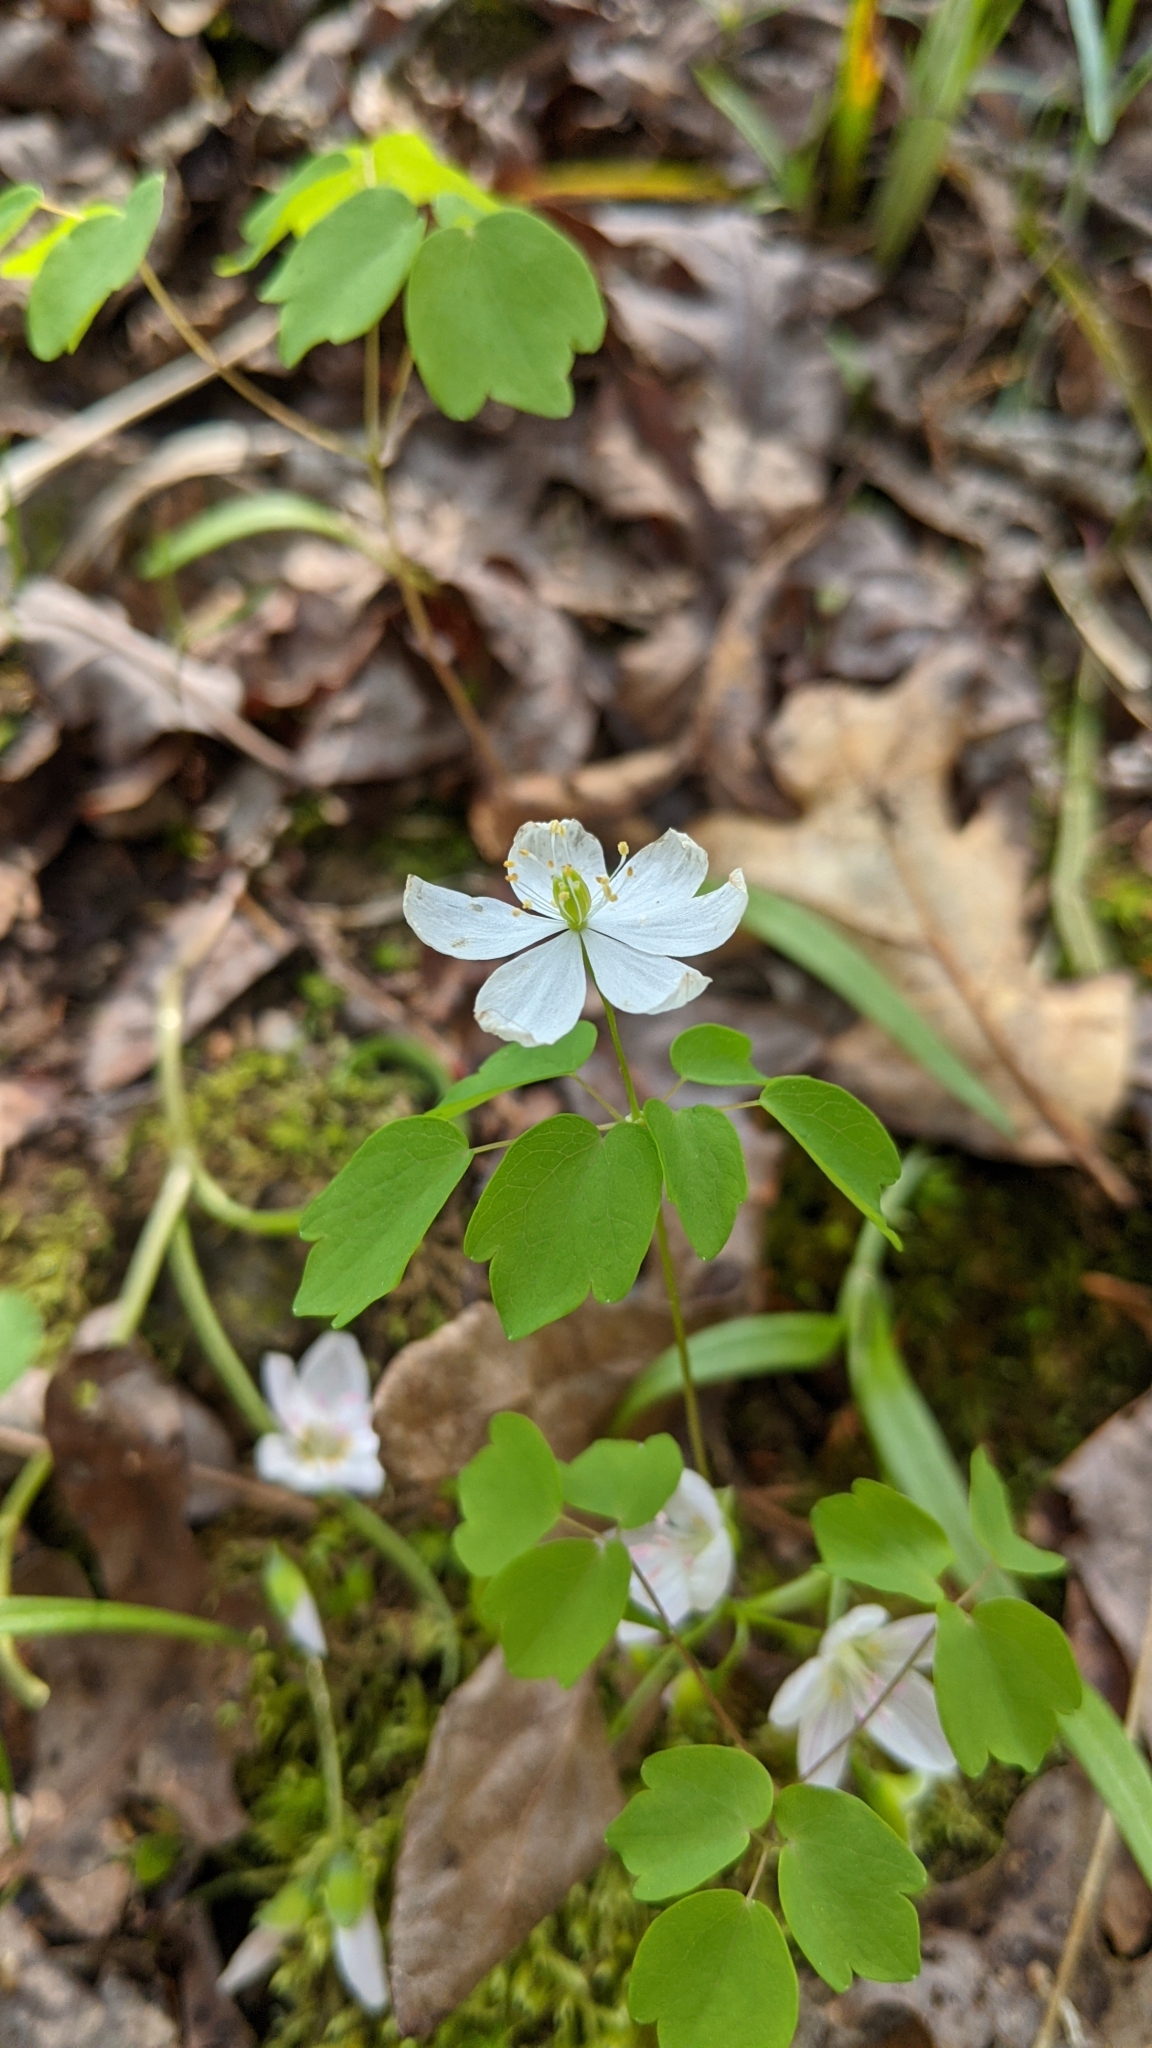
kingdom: Plantae
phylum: Tracheophyta
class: Magnoliopsida
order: Ranunculales
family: Ranunculaceae
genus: Thalictrum
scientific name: Thalictrum thalictroides
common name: Rue-anemone
